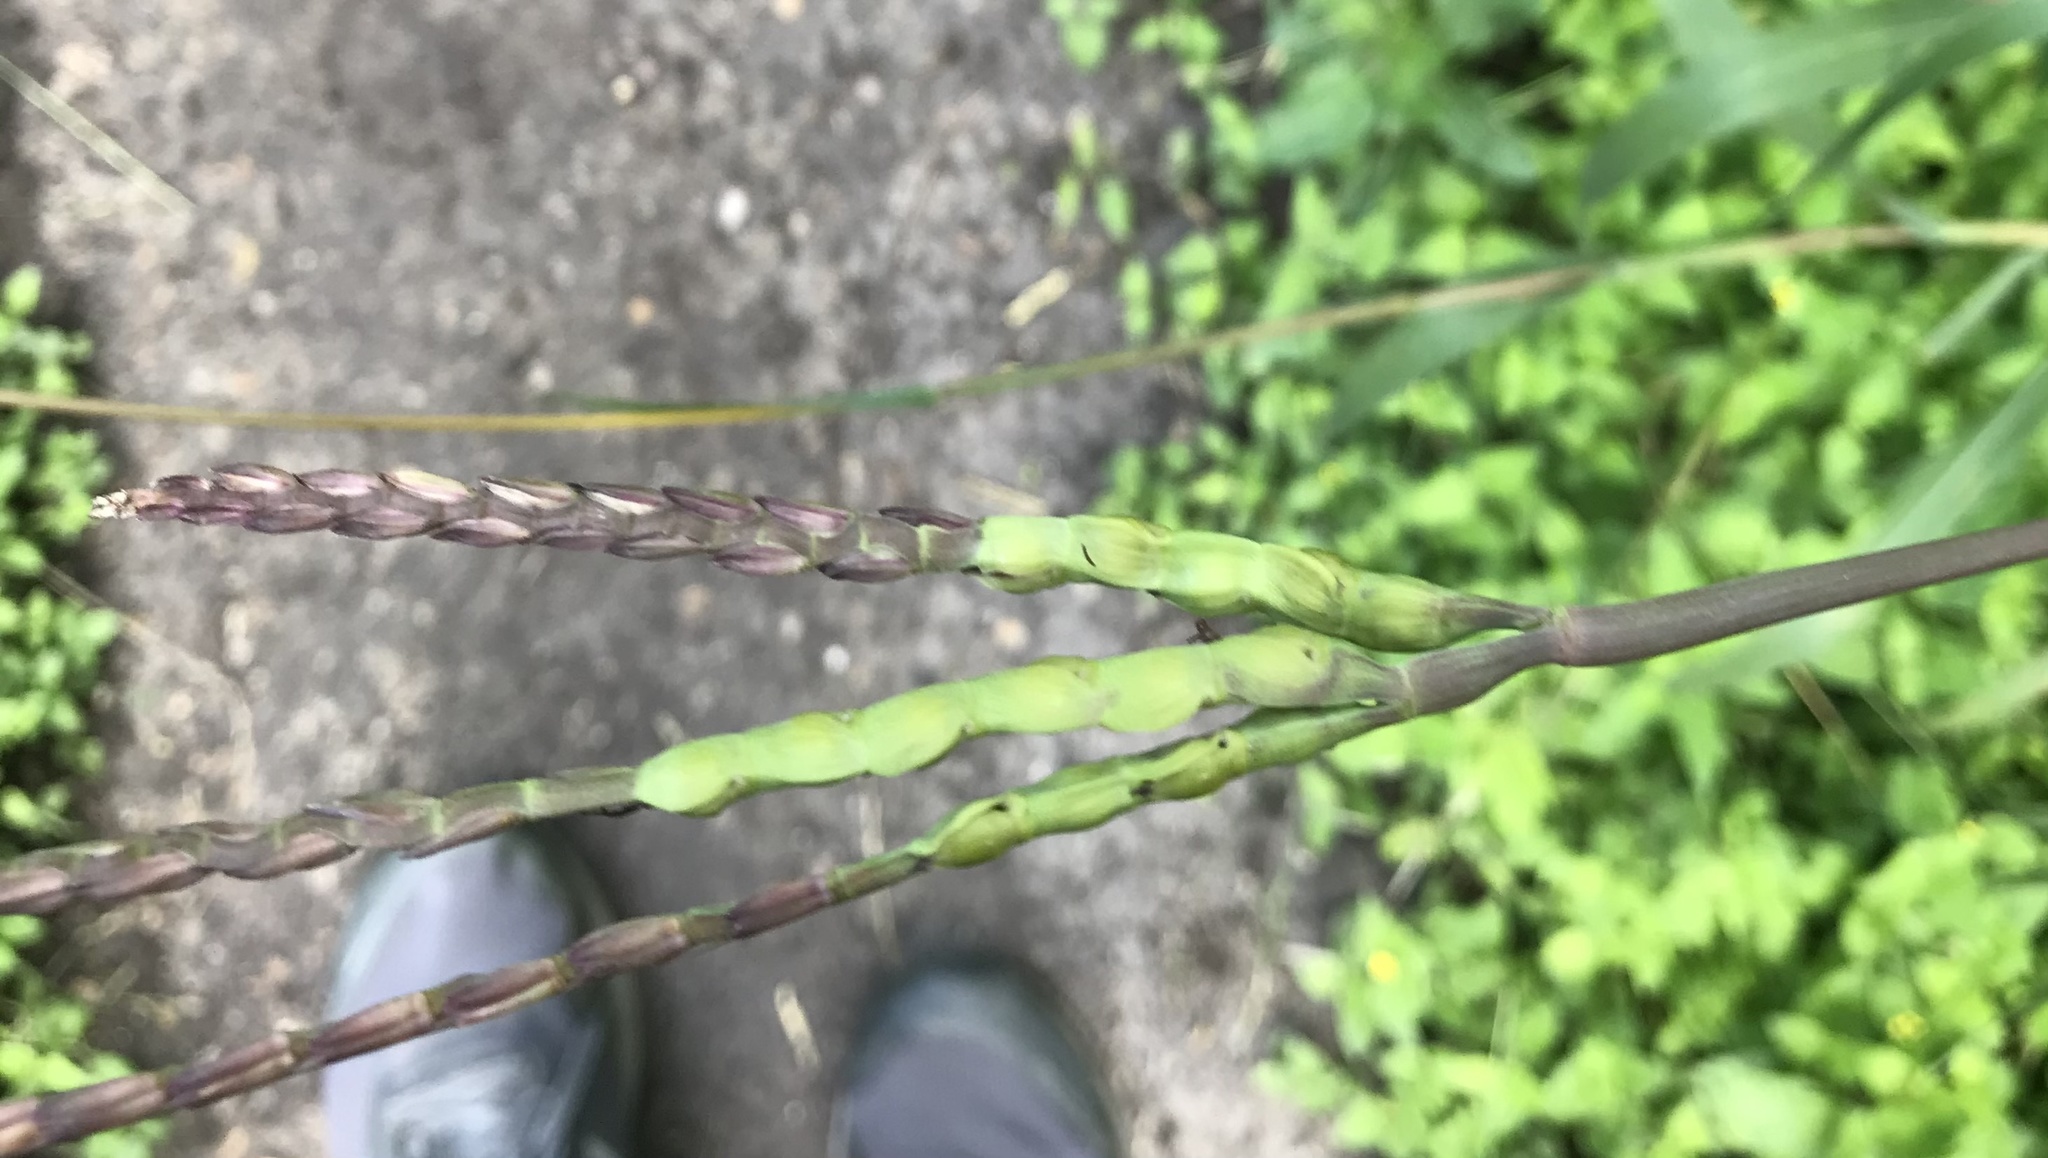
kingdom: Plantae
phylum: Tracheophyta
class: Liliopsida
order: Poales
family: Poaceae
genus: Tripsacum
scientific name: Tripsacum dactyloides
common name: Buffalo-grass
